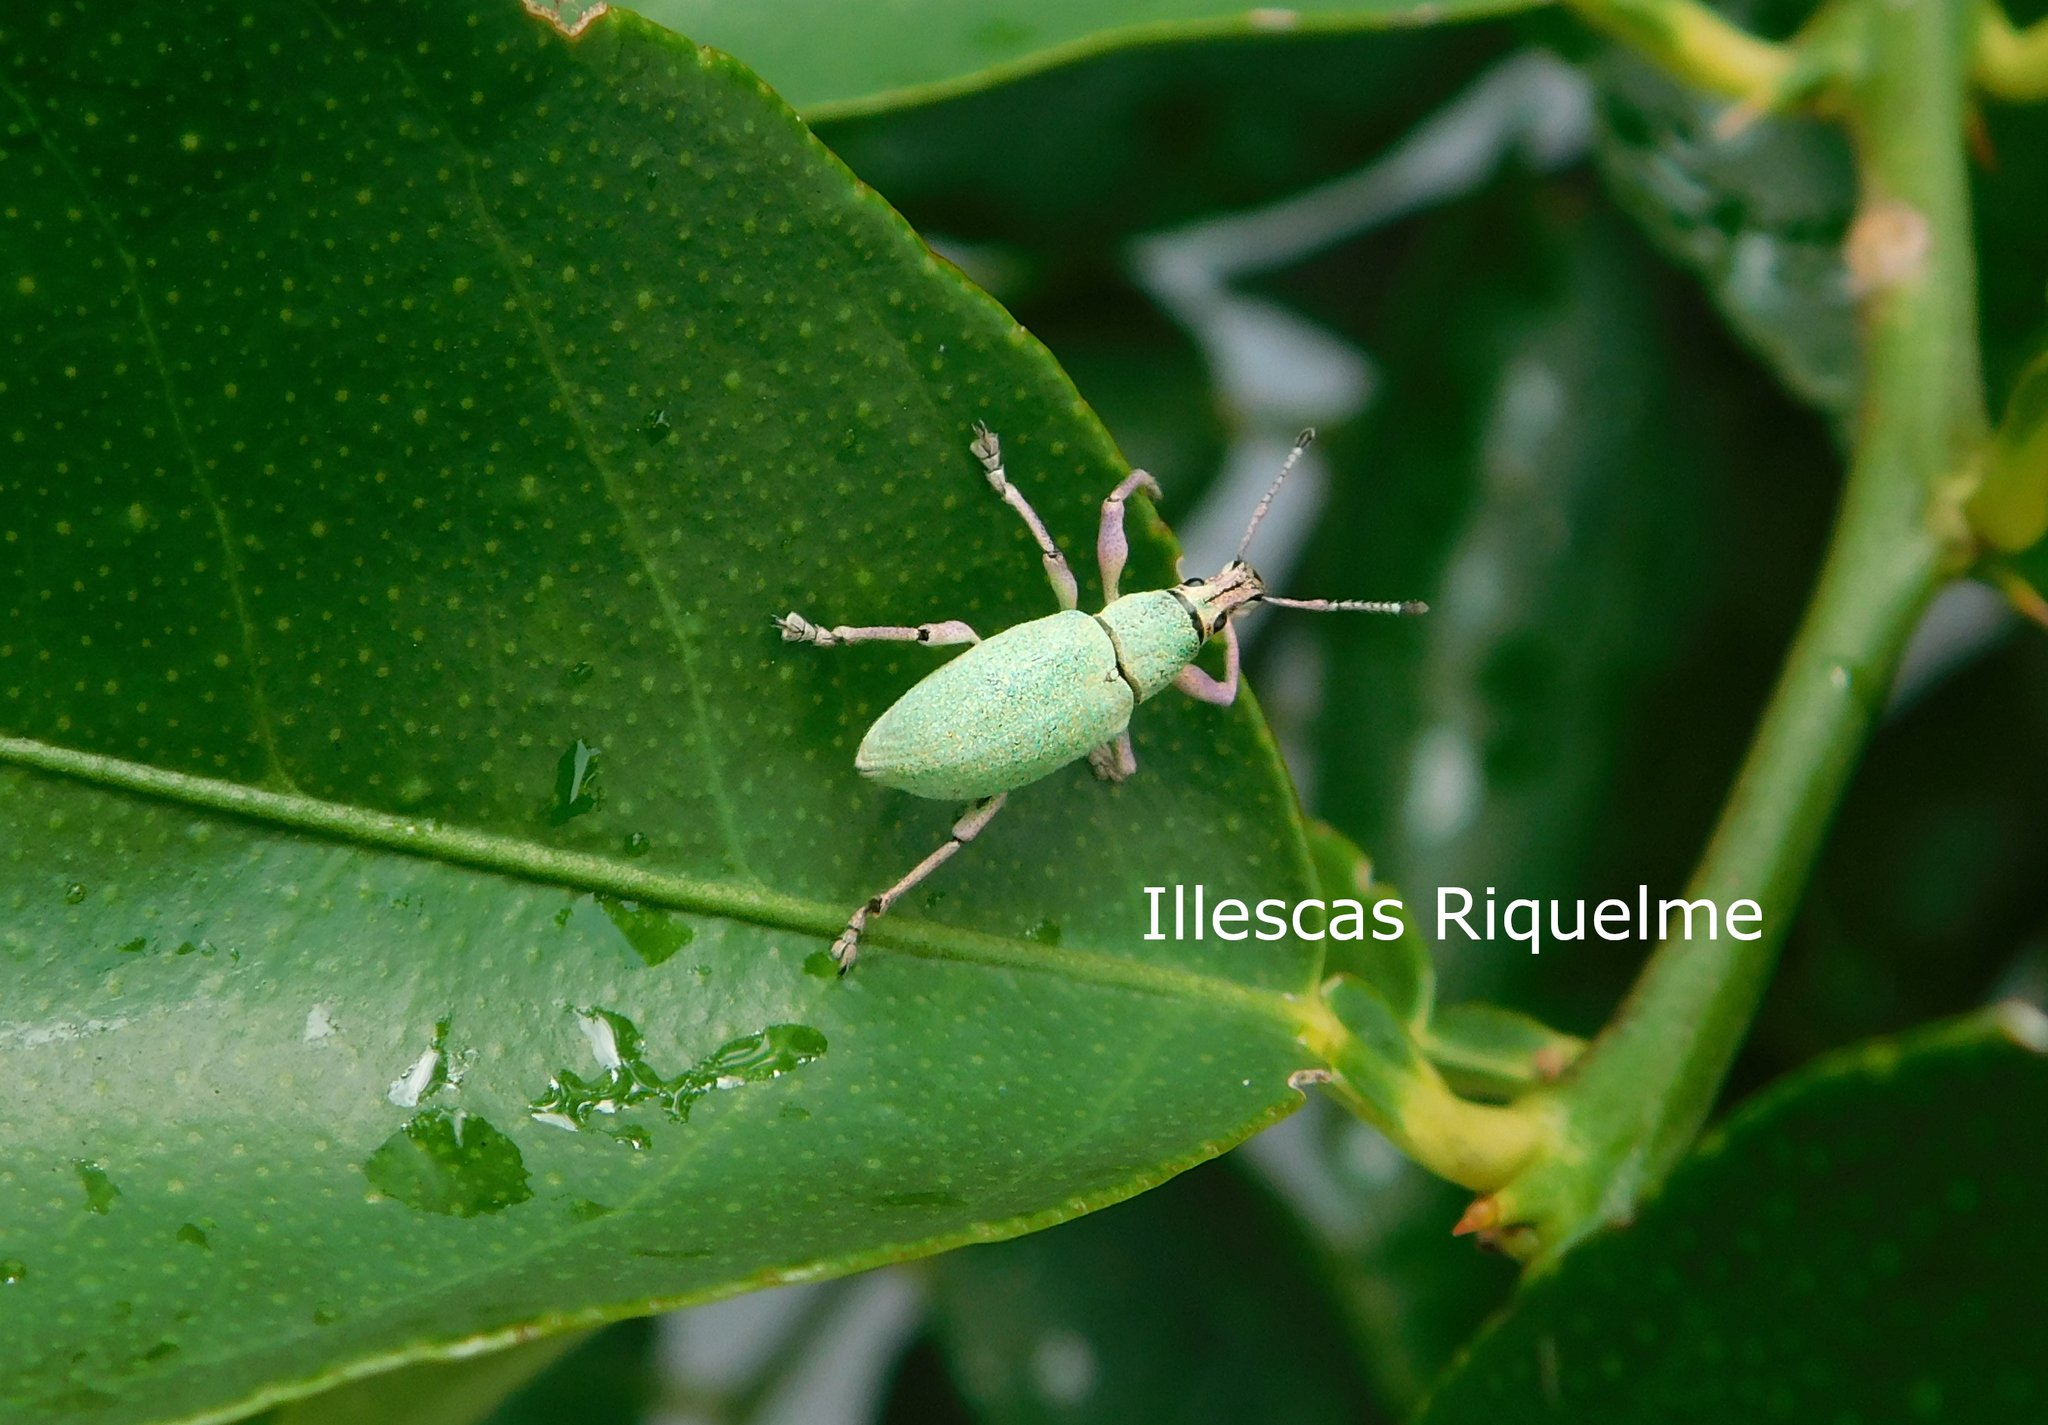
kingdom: Animalia
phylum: Arthropoda
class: Insecta
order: Coleoptera
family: Curculionidae
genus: Exophthalmus
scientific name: Exophthalmus opulentus
